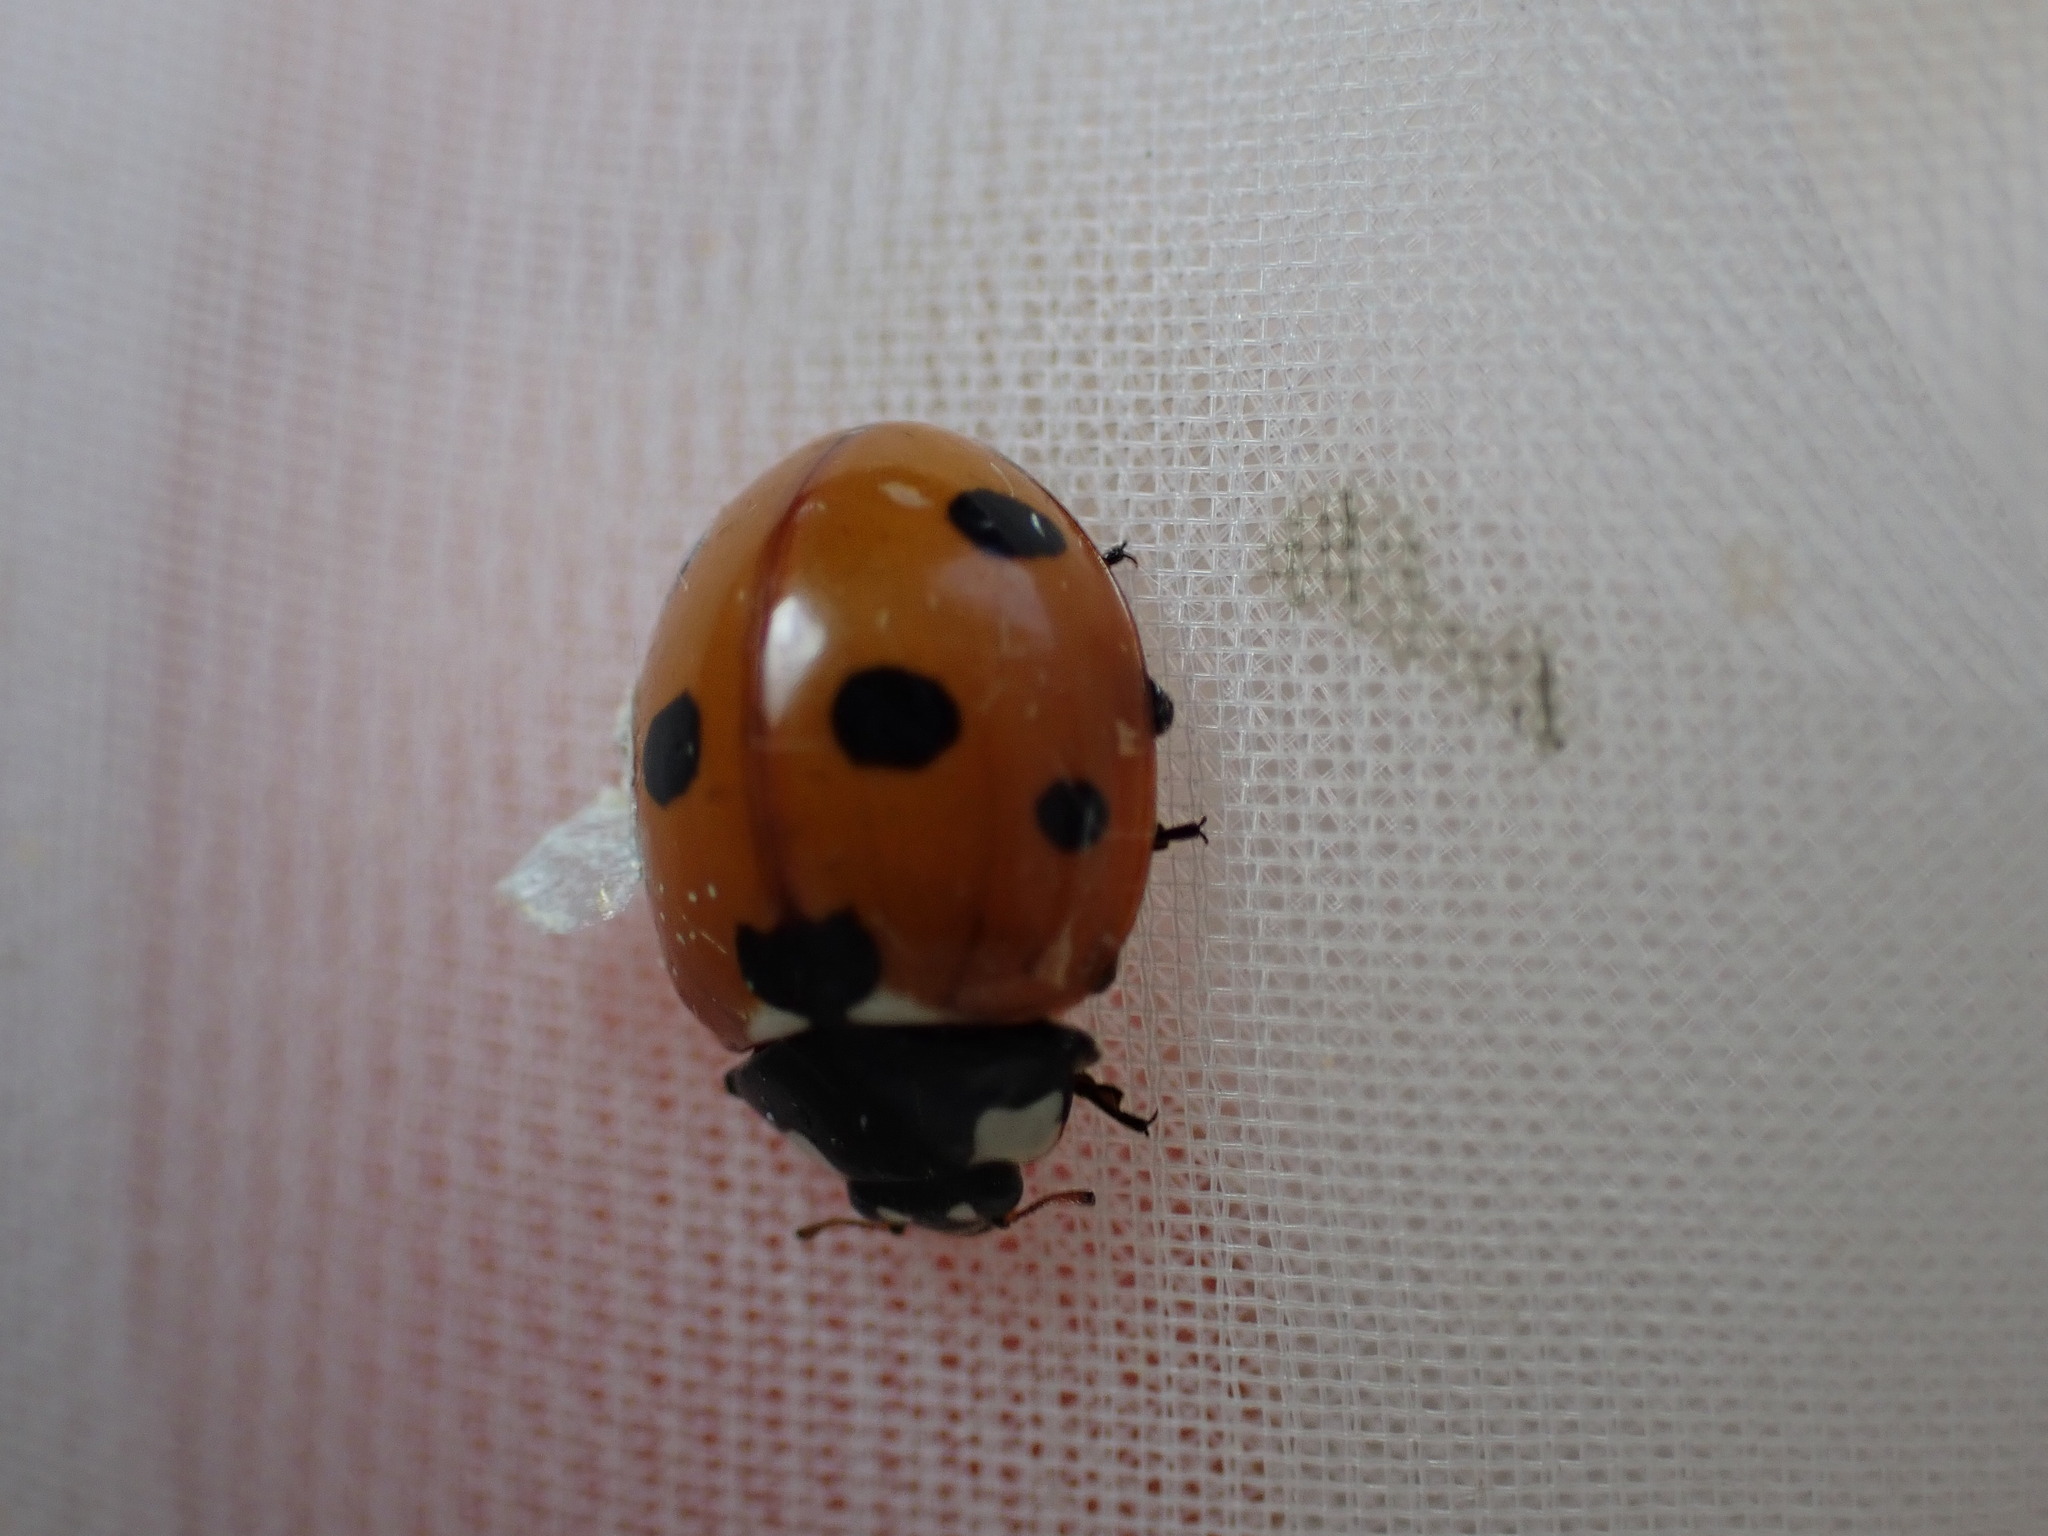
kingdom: Animalia
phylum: Arthropoda
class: Insecta
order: Coleoptera
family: Coccinellidae
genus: Coccinella
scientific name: Coccinella septempunctata
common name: Sevenspotted lady beetle
